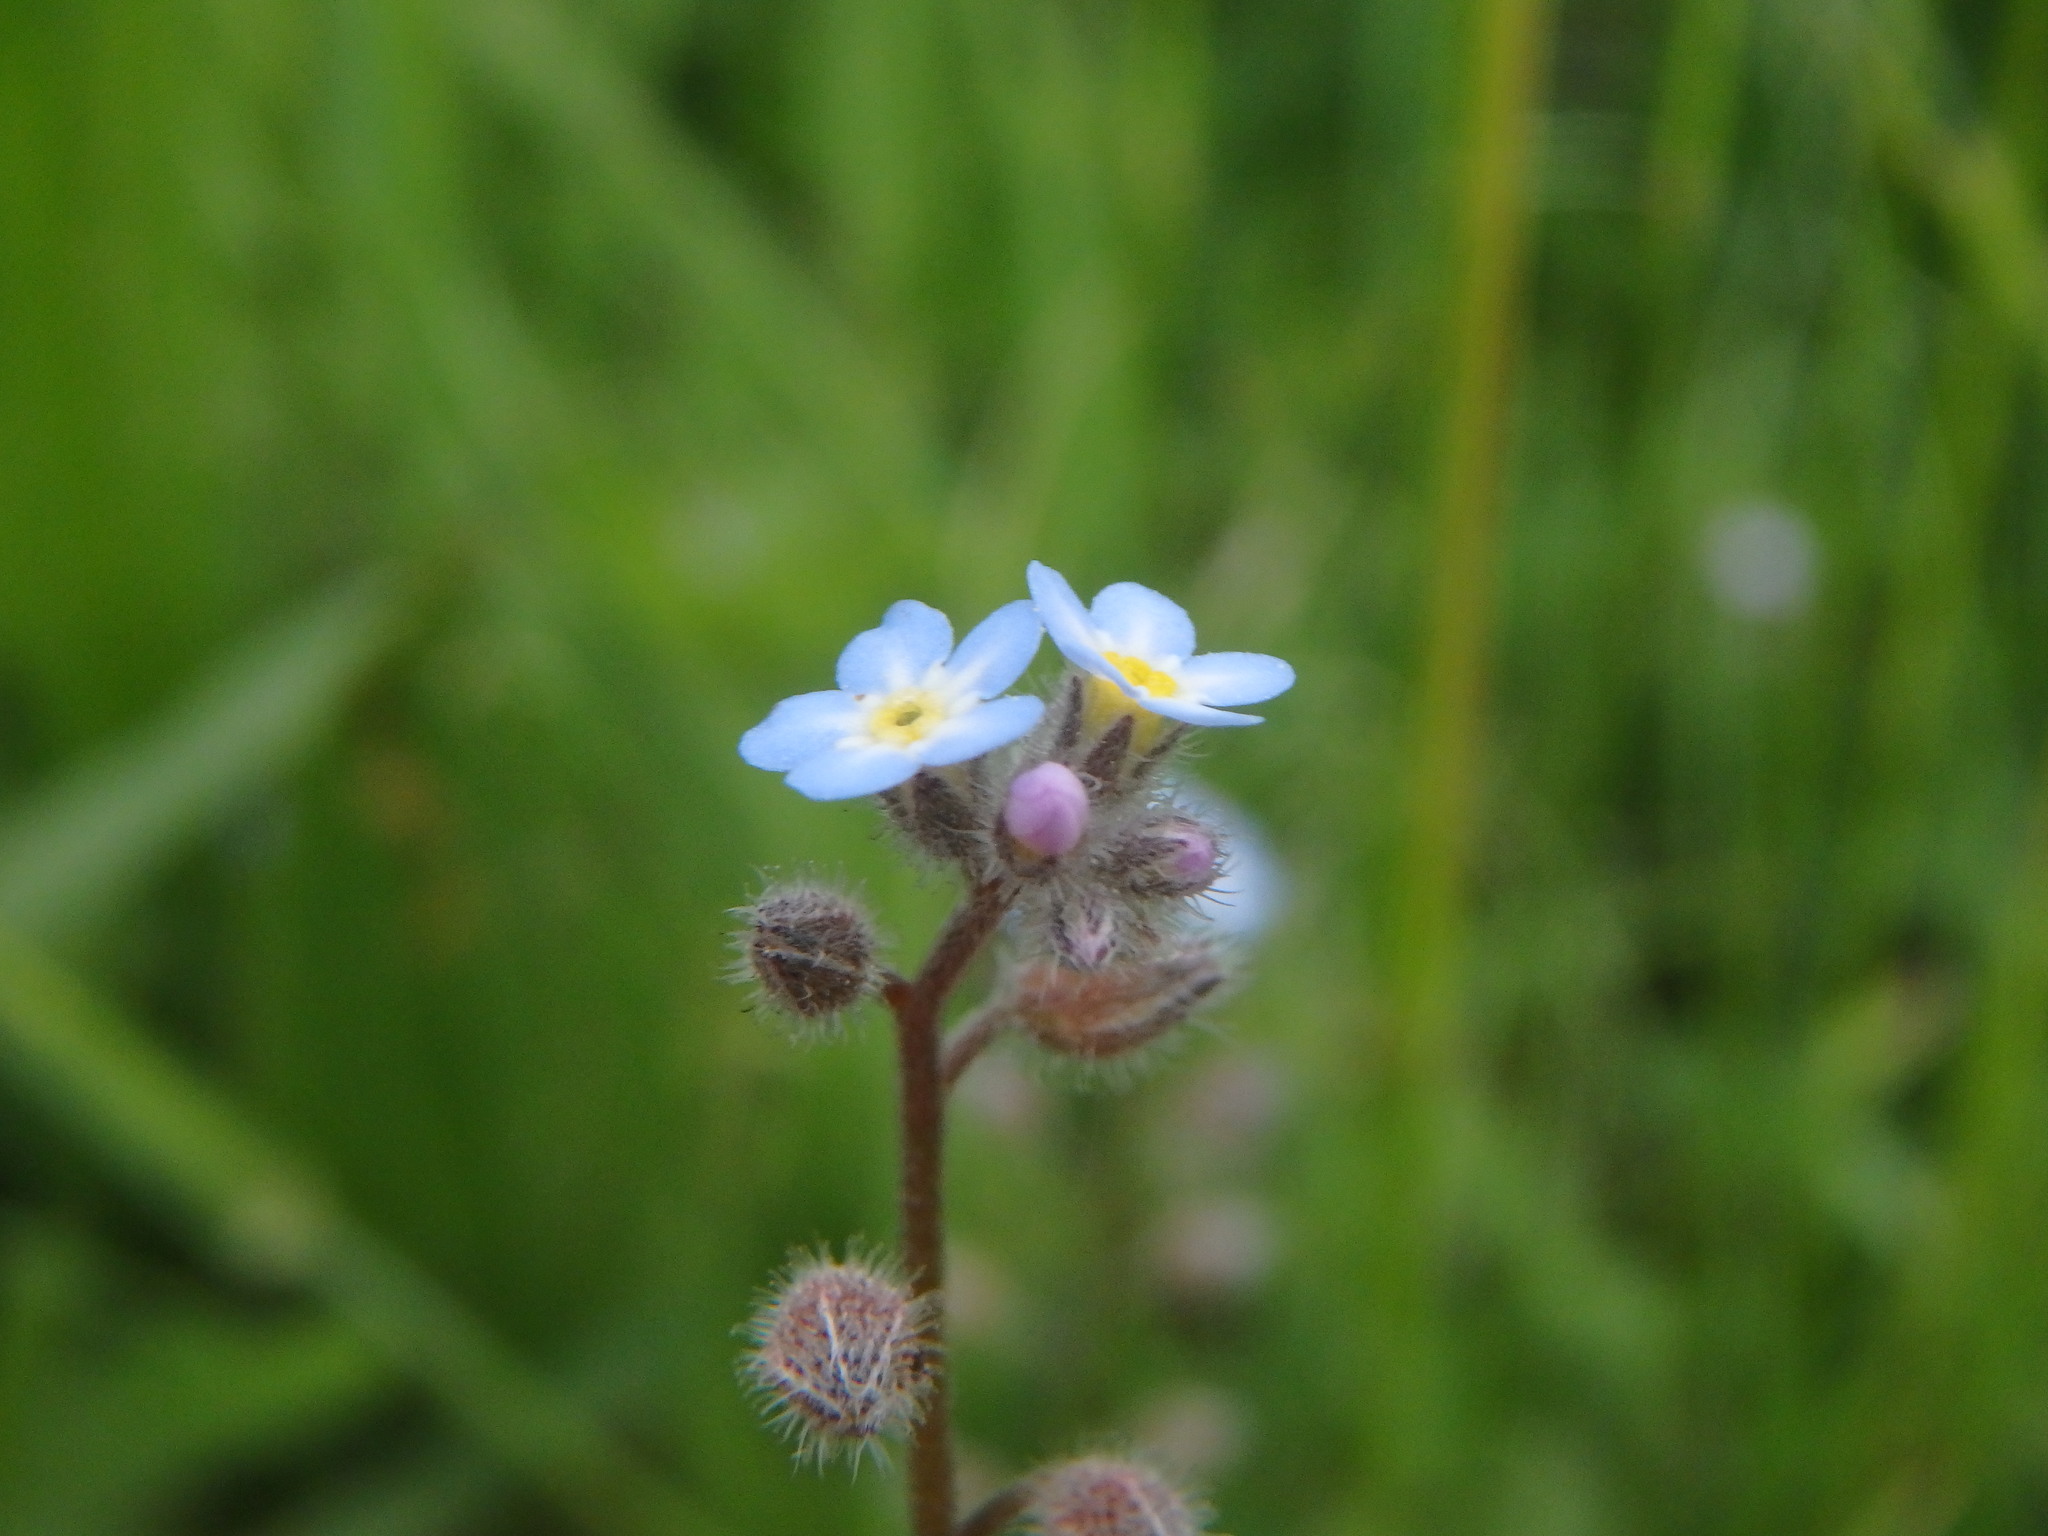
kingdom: Plantae
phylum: Tracheophyta
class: Magnoliopsida
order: Boraginales
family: Boraginaceae
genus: Myosotis
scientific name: Myosotis arvensis
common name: Field forget-me-not
